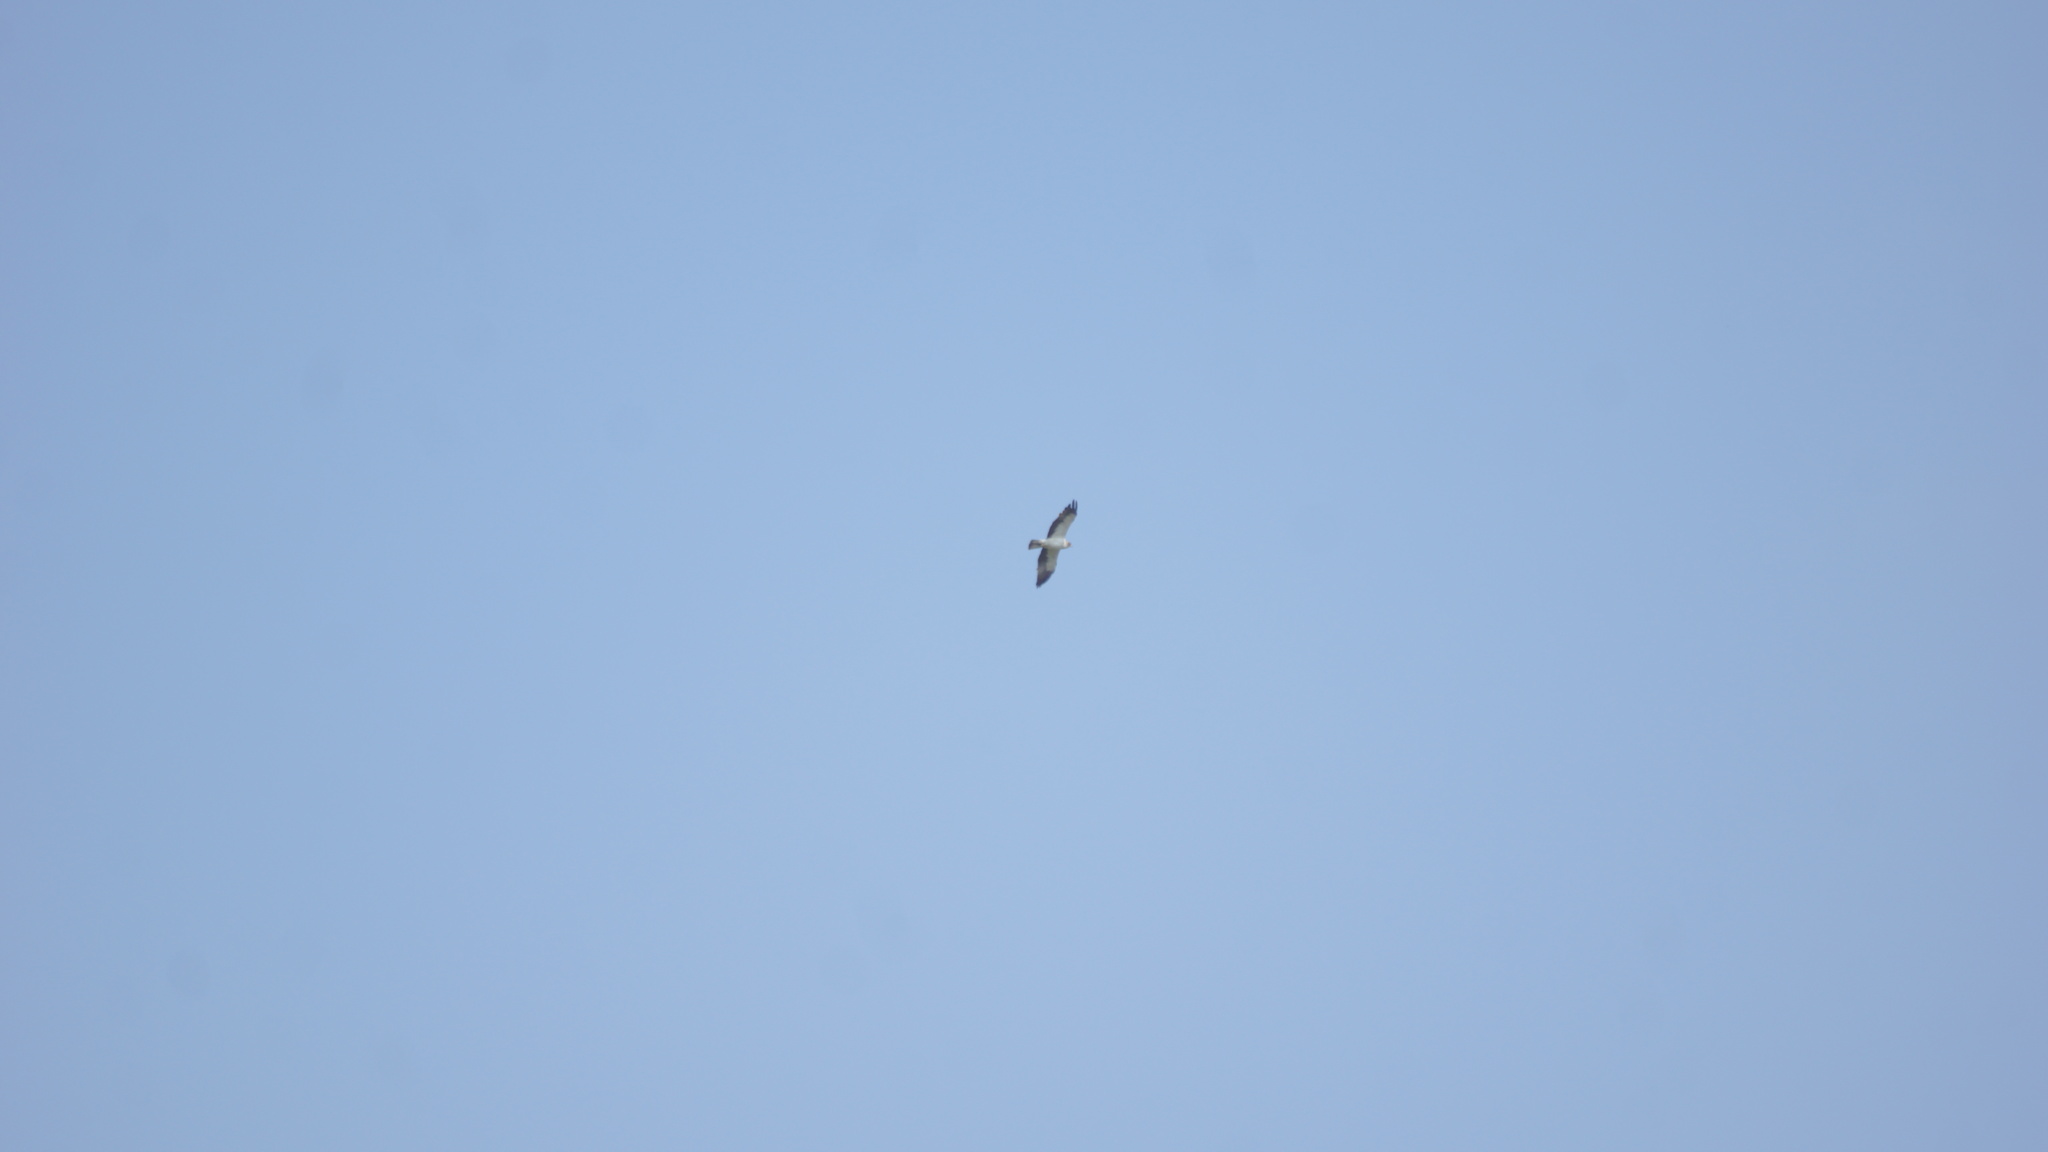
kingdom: Animalia
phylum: Chordata
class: Aves
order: Accipitriformes
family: Accipitridae
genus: Hieraaetus
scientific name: Hieraaetus pennatus
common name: Booted eagle
